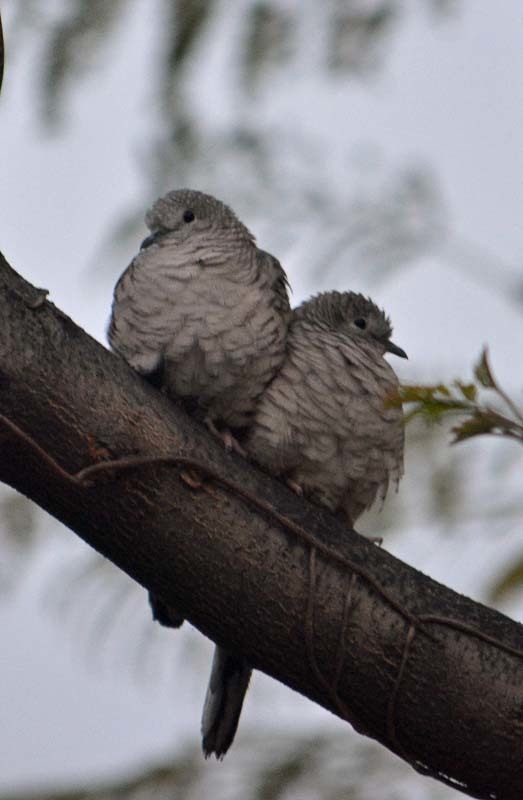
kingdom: Animalia
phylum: Chordata
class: Aves
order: Columbiformes
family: Columbidae
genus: Columbina
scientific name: Columbina inca
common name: Inca dove
